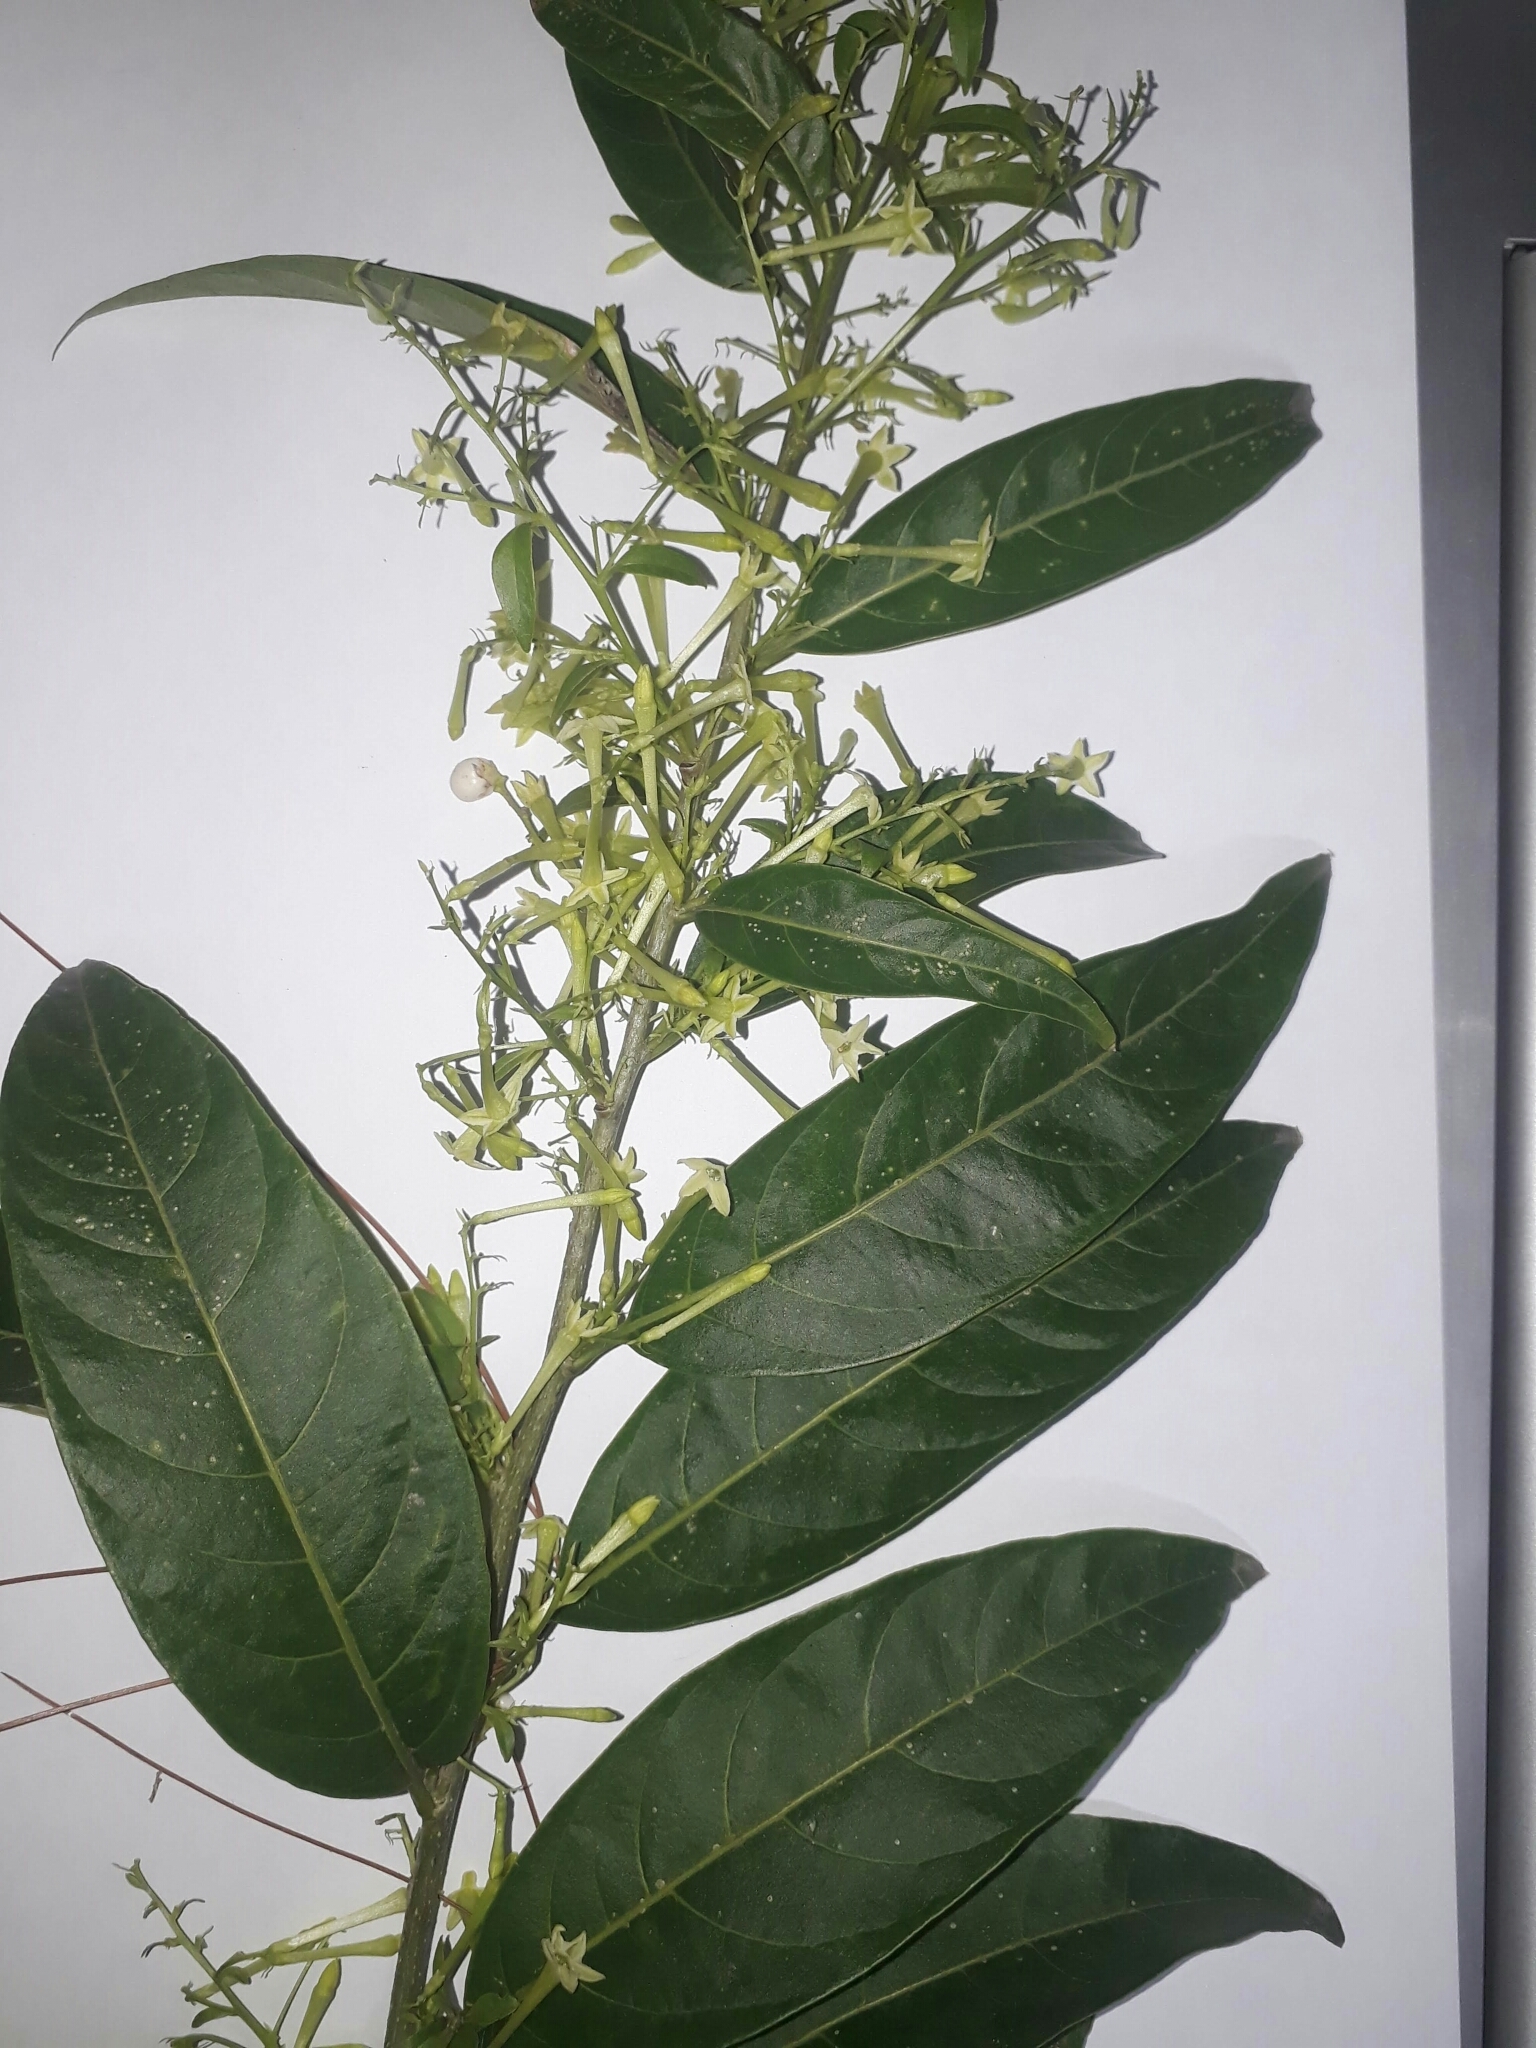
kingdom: Plantae
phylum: Tracheophyta
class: Magnoliopsida
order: Solanales
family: Solanaceae
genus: Cestrum
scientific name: Cestrum nocturnum
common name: Night jessamine
